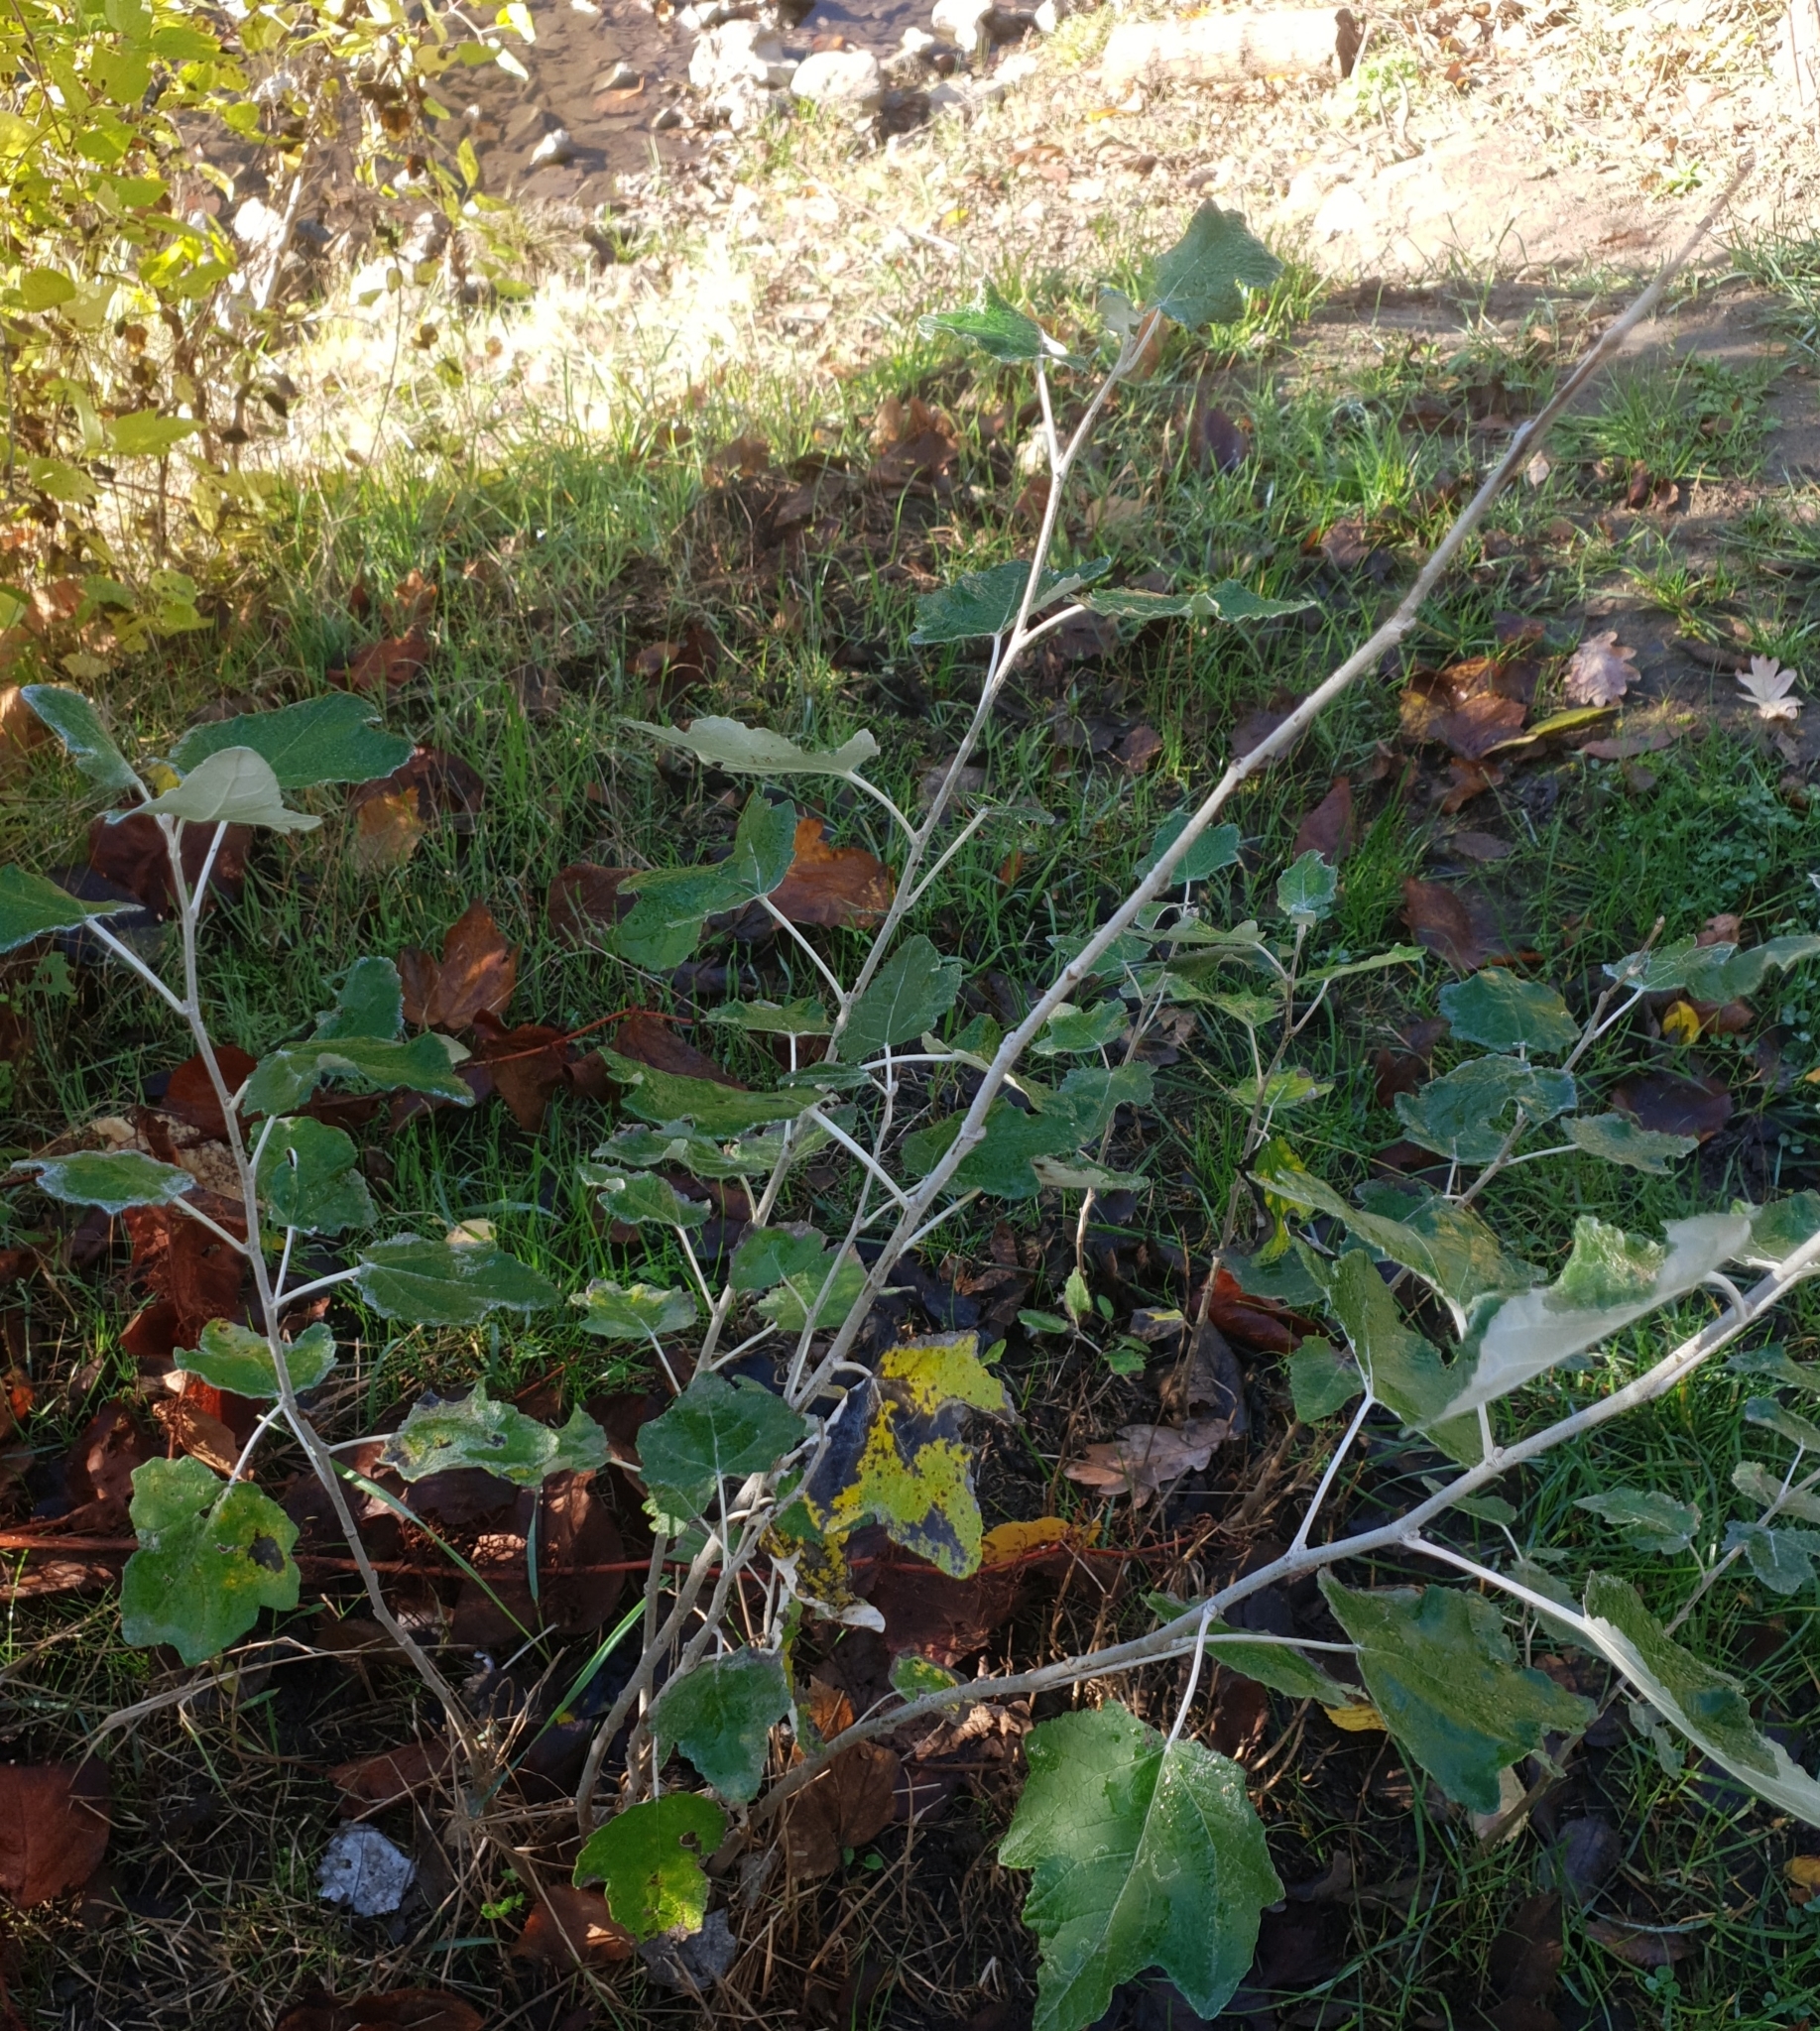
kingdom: Plantae
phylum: Tracheophyta
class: Magnoliopsida
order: Malpighiales
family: Salicaceae
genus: Populus
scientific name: Populus alba
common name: White poplar
